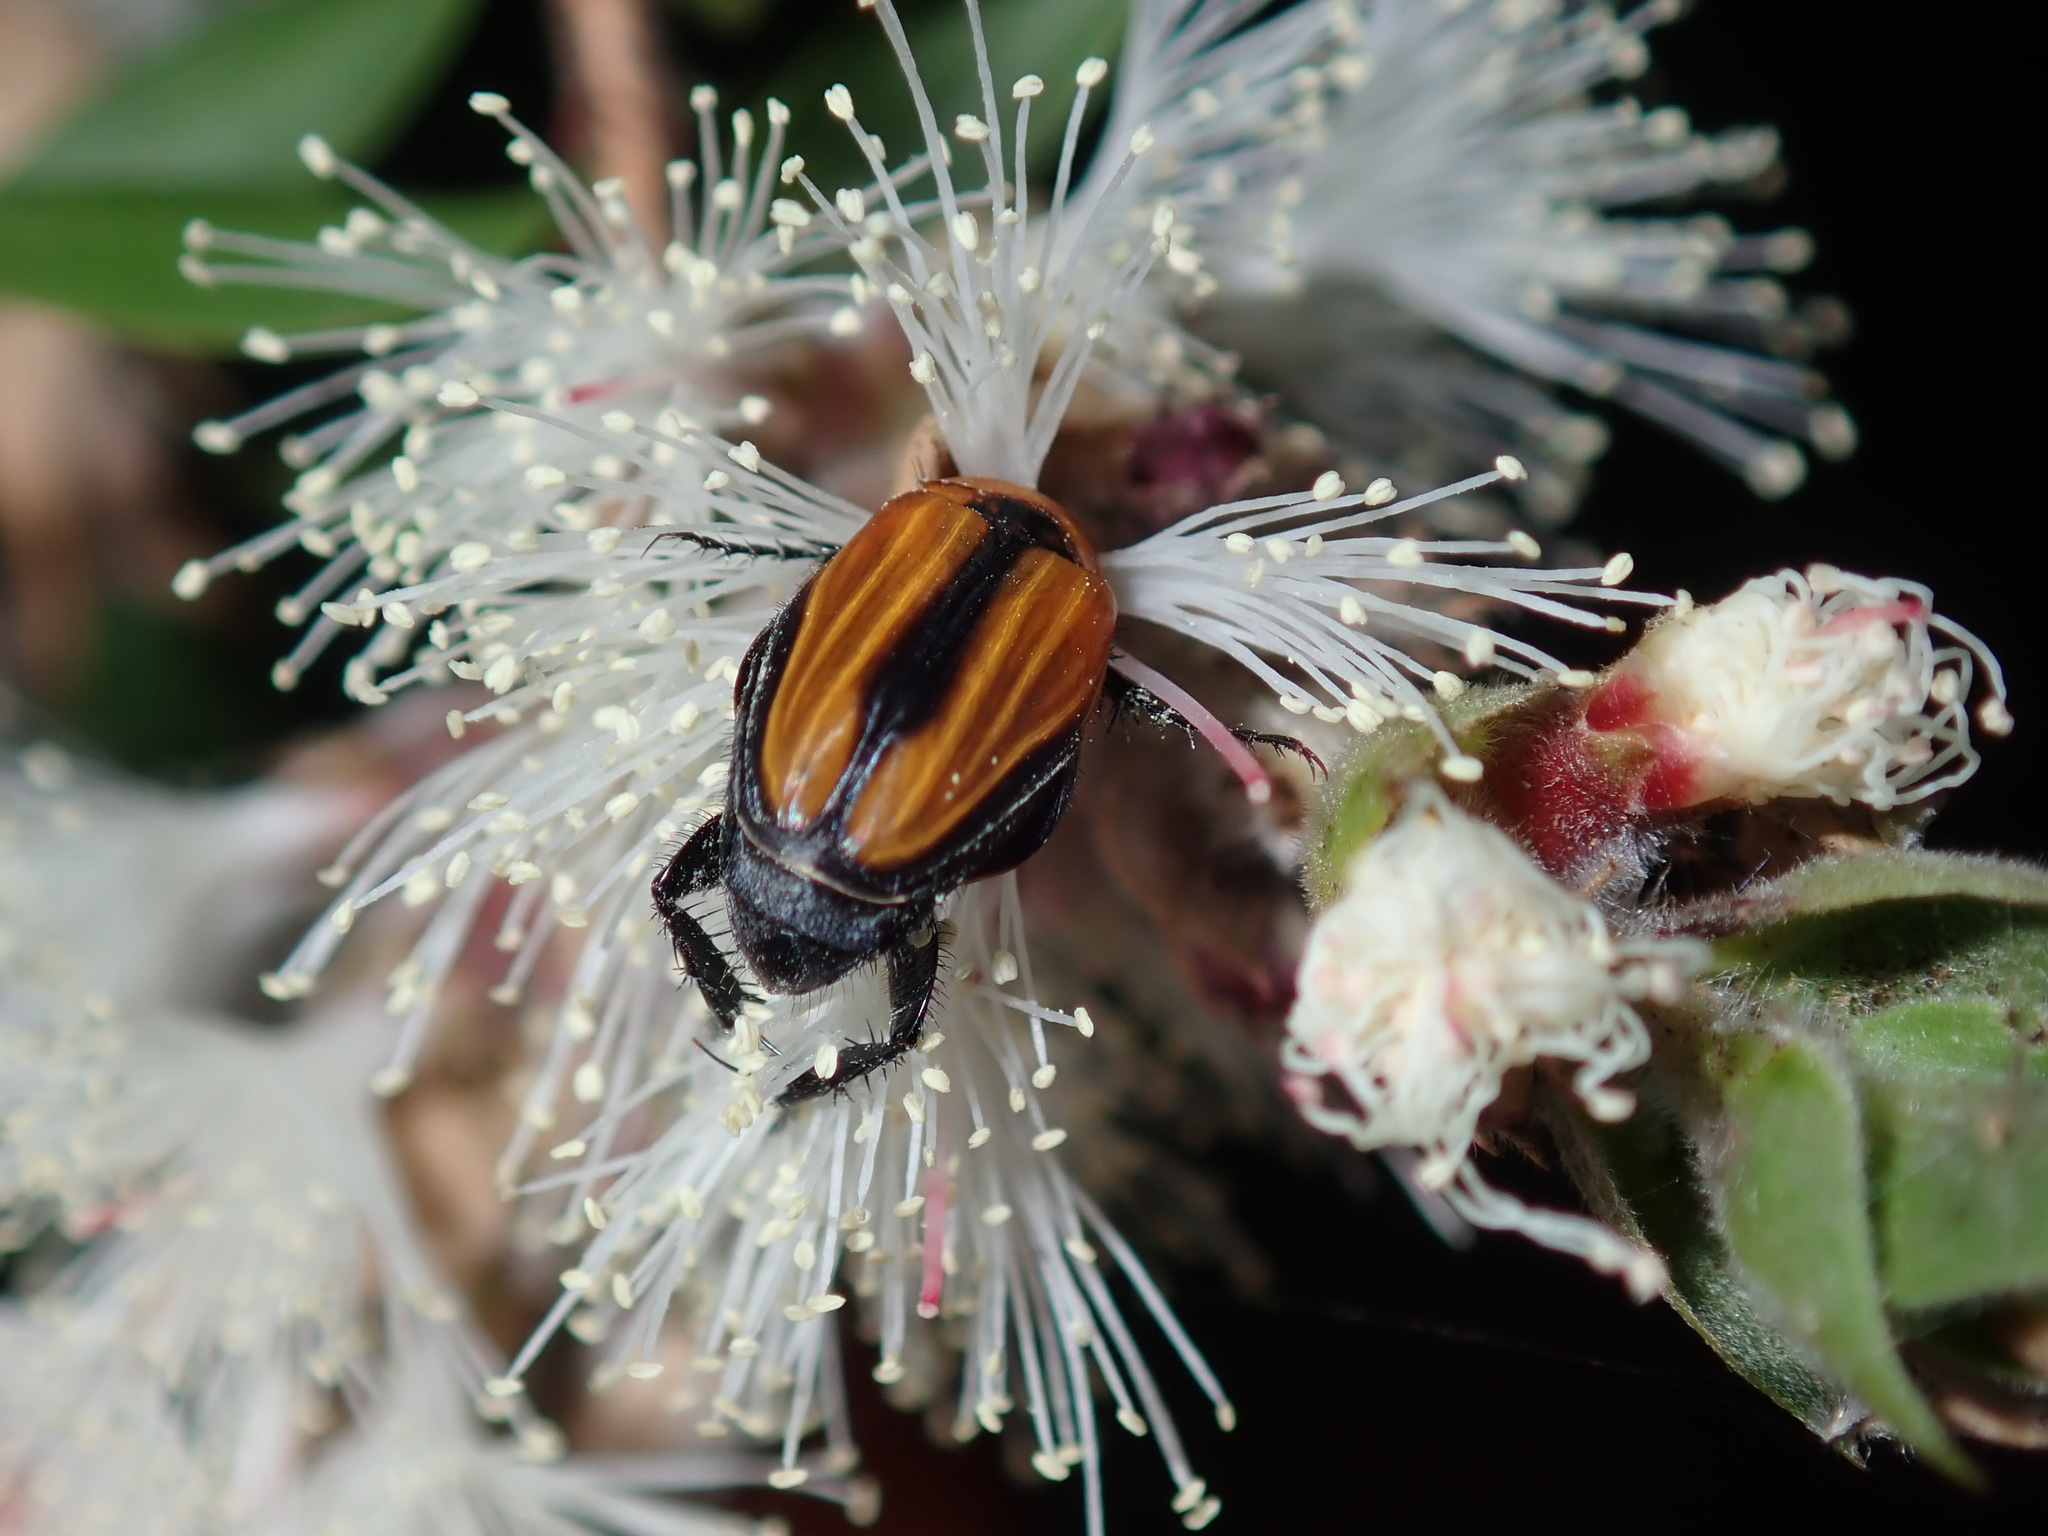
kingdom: Animalia
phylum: Arthropoda
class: Insecta
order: Coleoptera
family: Scarabaeidae
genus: Phyllotocus
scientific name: Phyllotocus scutellaris
